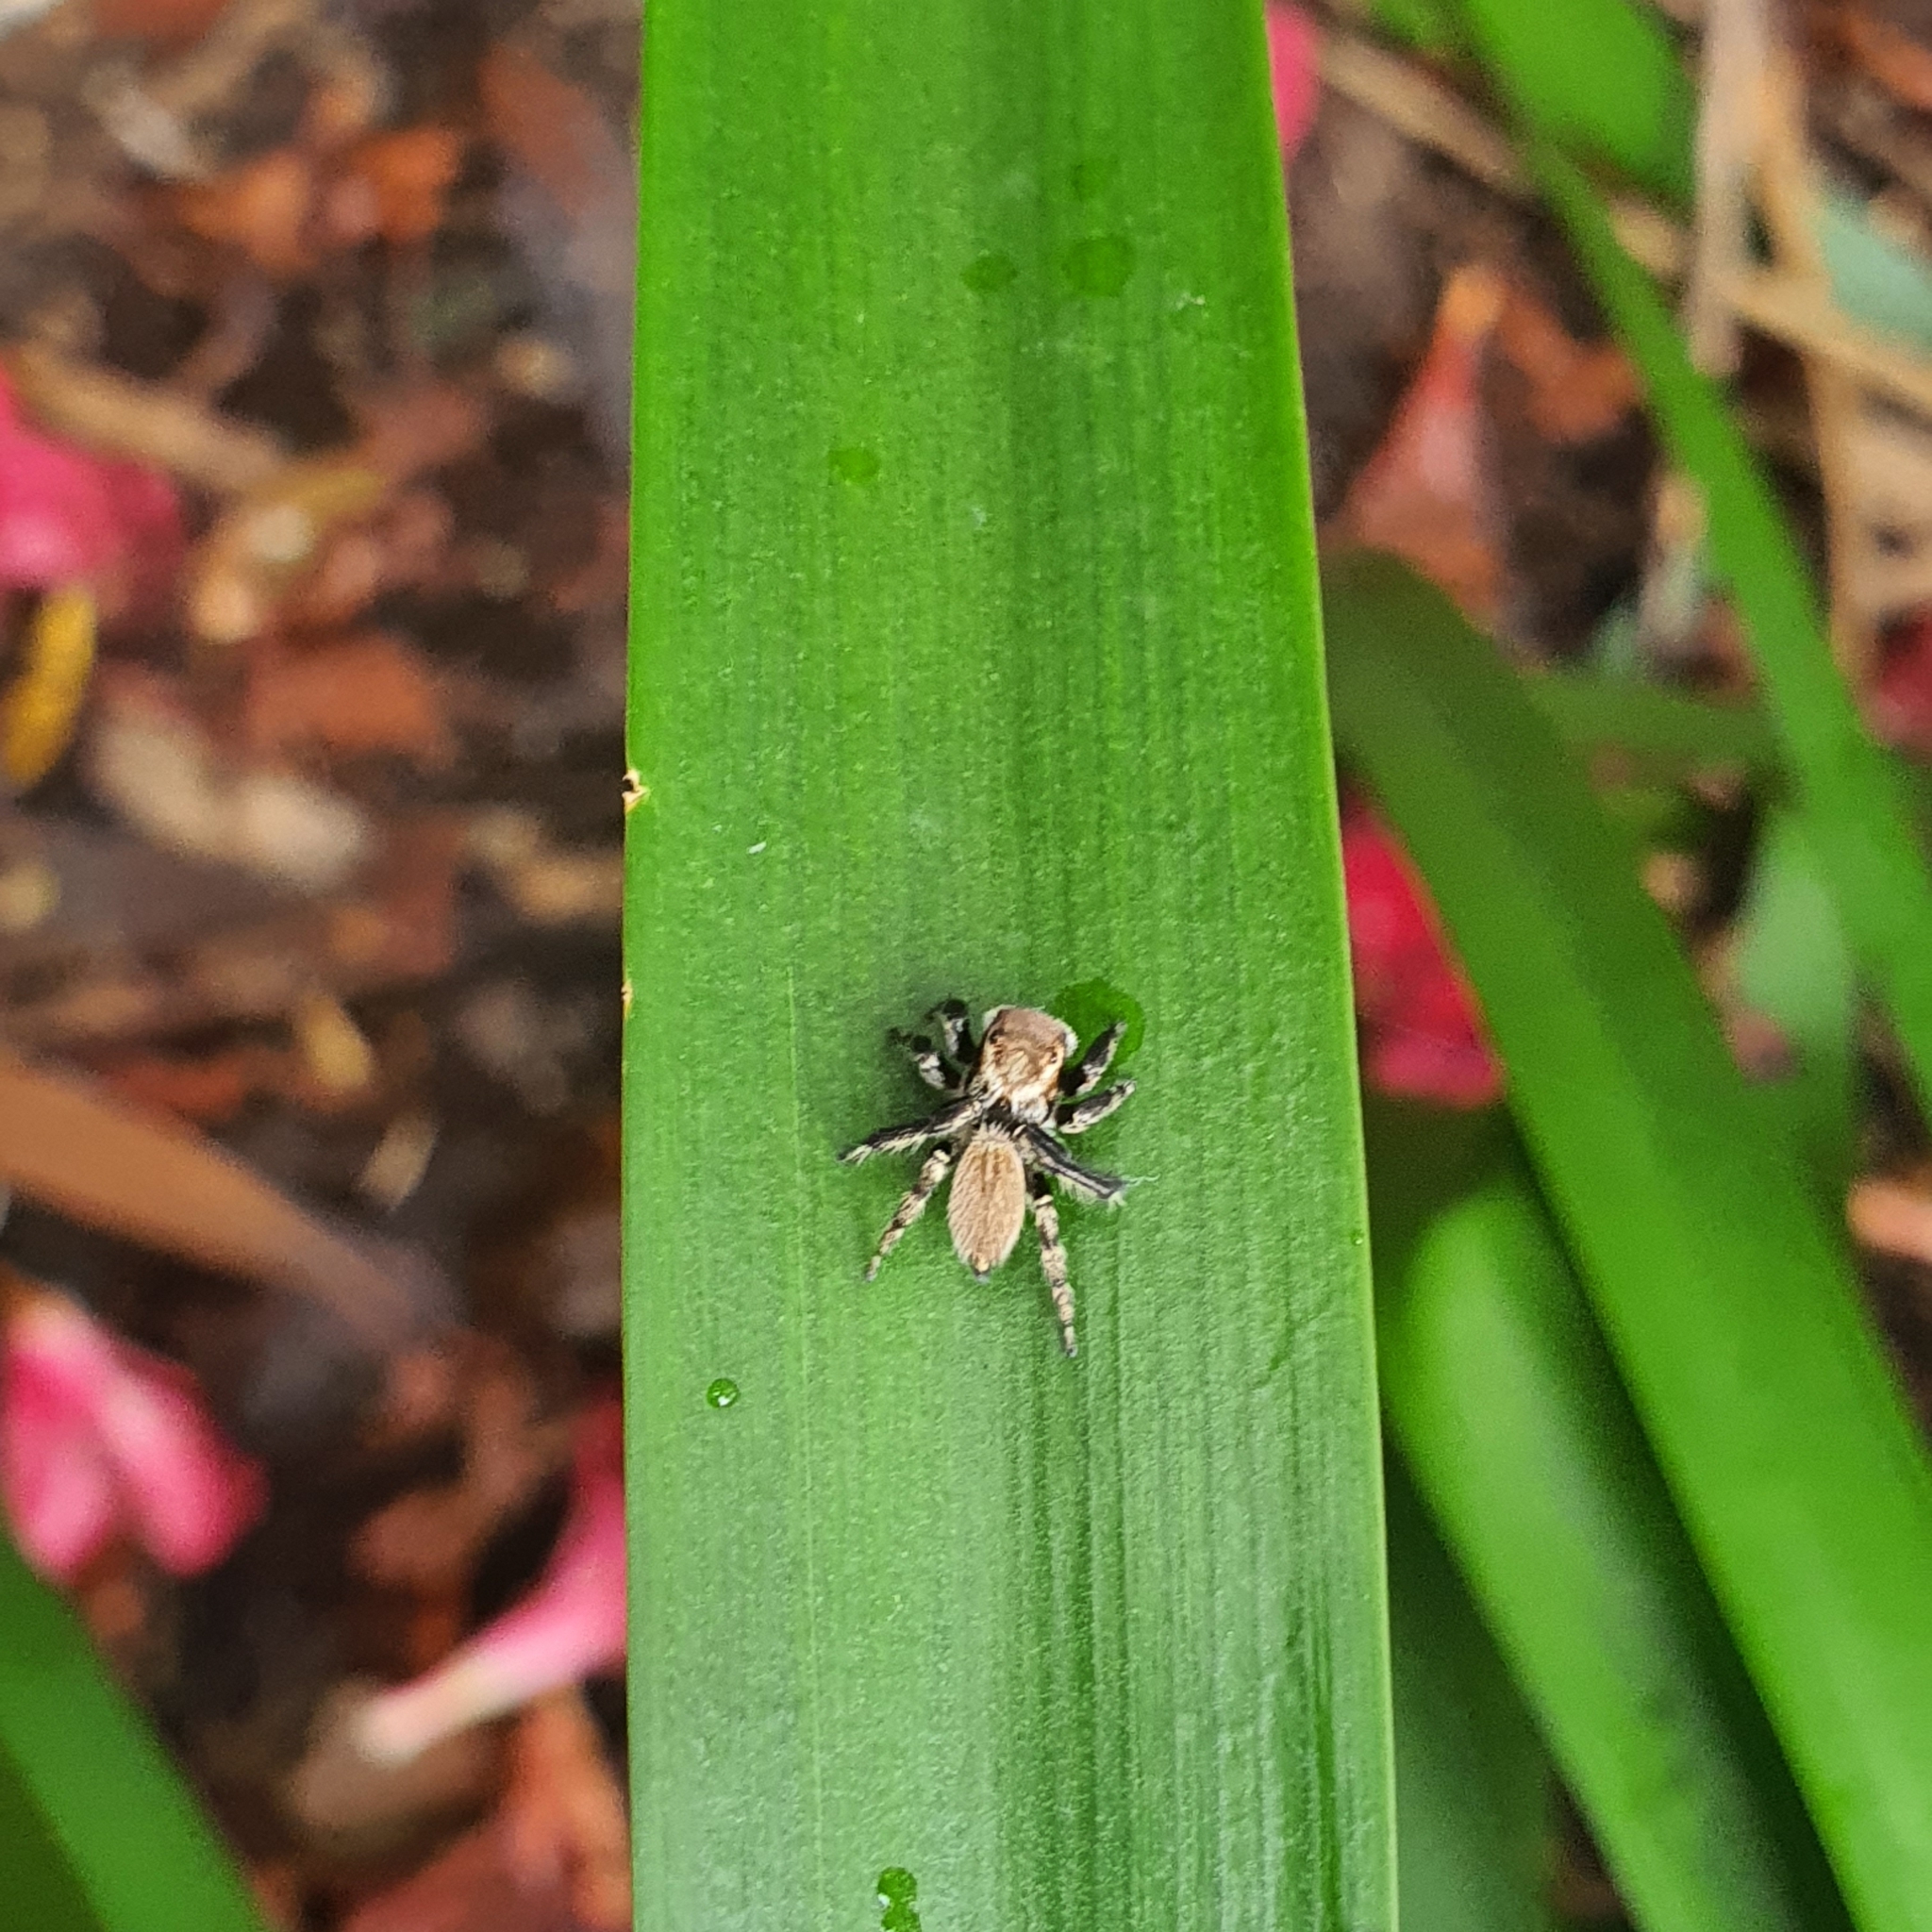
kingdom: Animalia
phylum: Arthropoda
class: Arachnida
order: Araneae
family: Salticidae
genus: Maratus
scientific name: Maratus griseus
